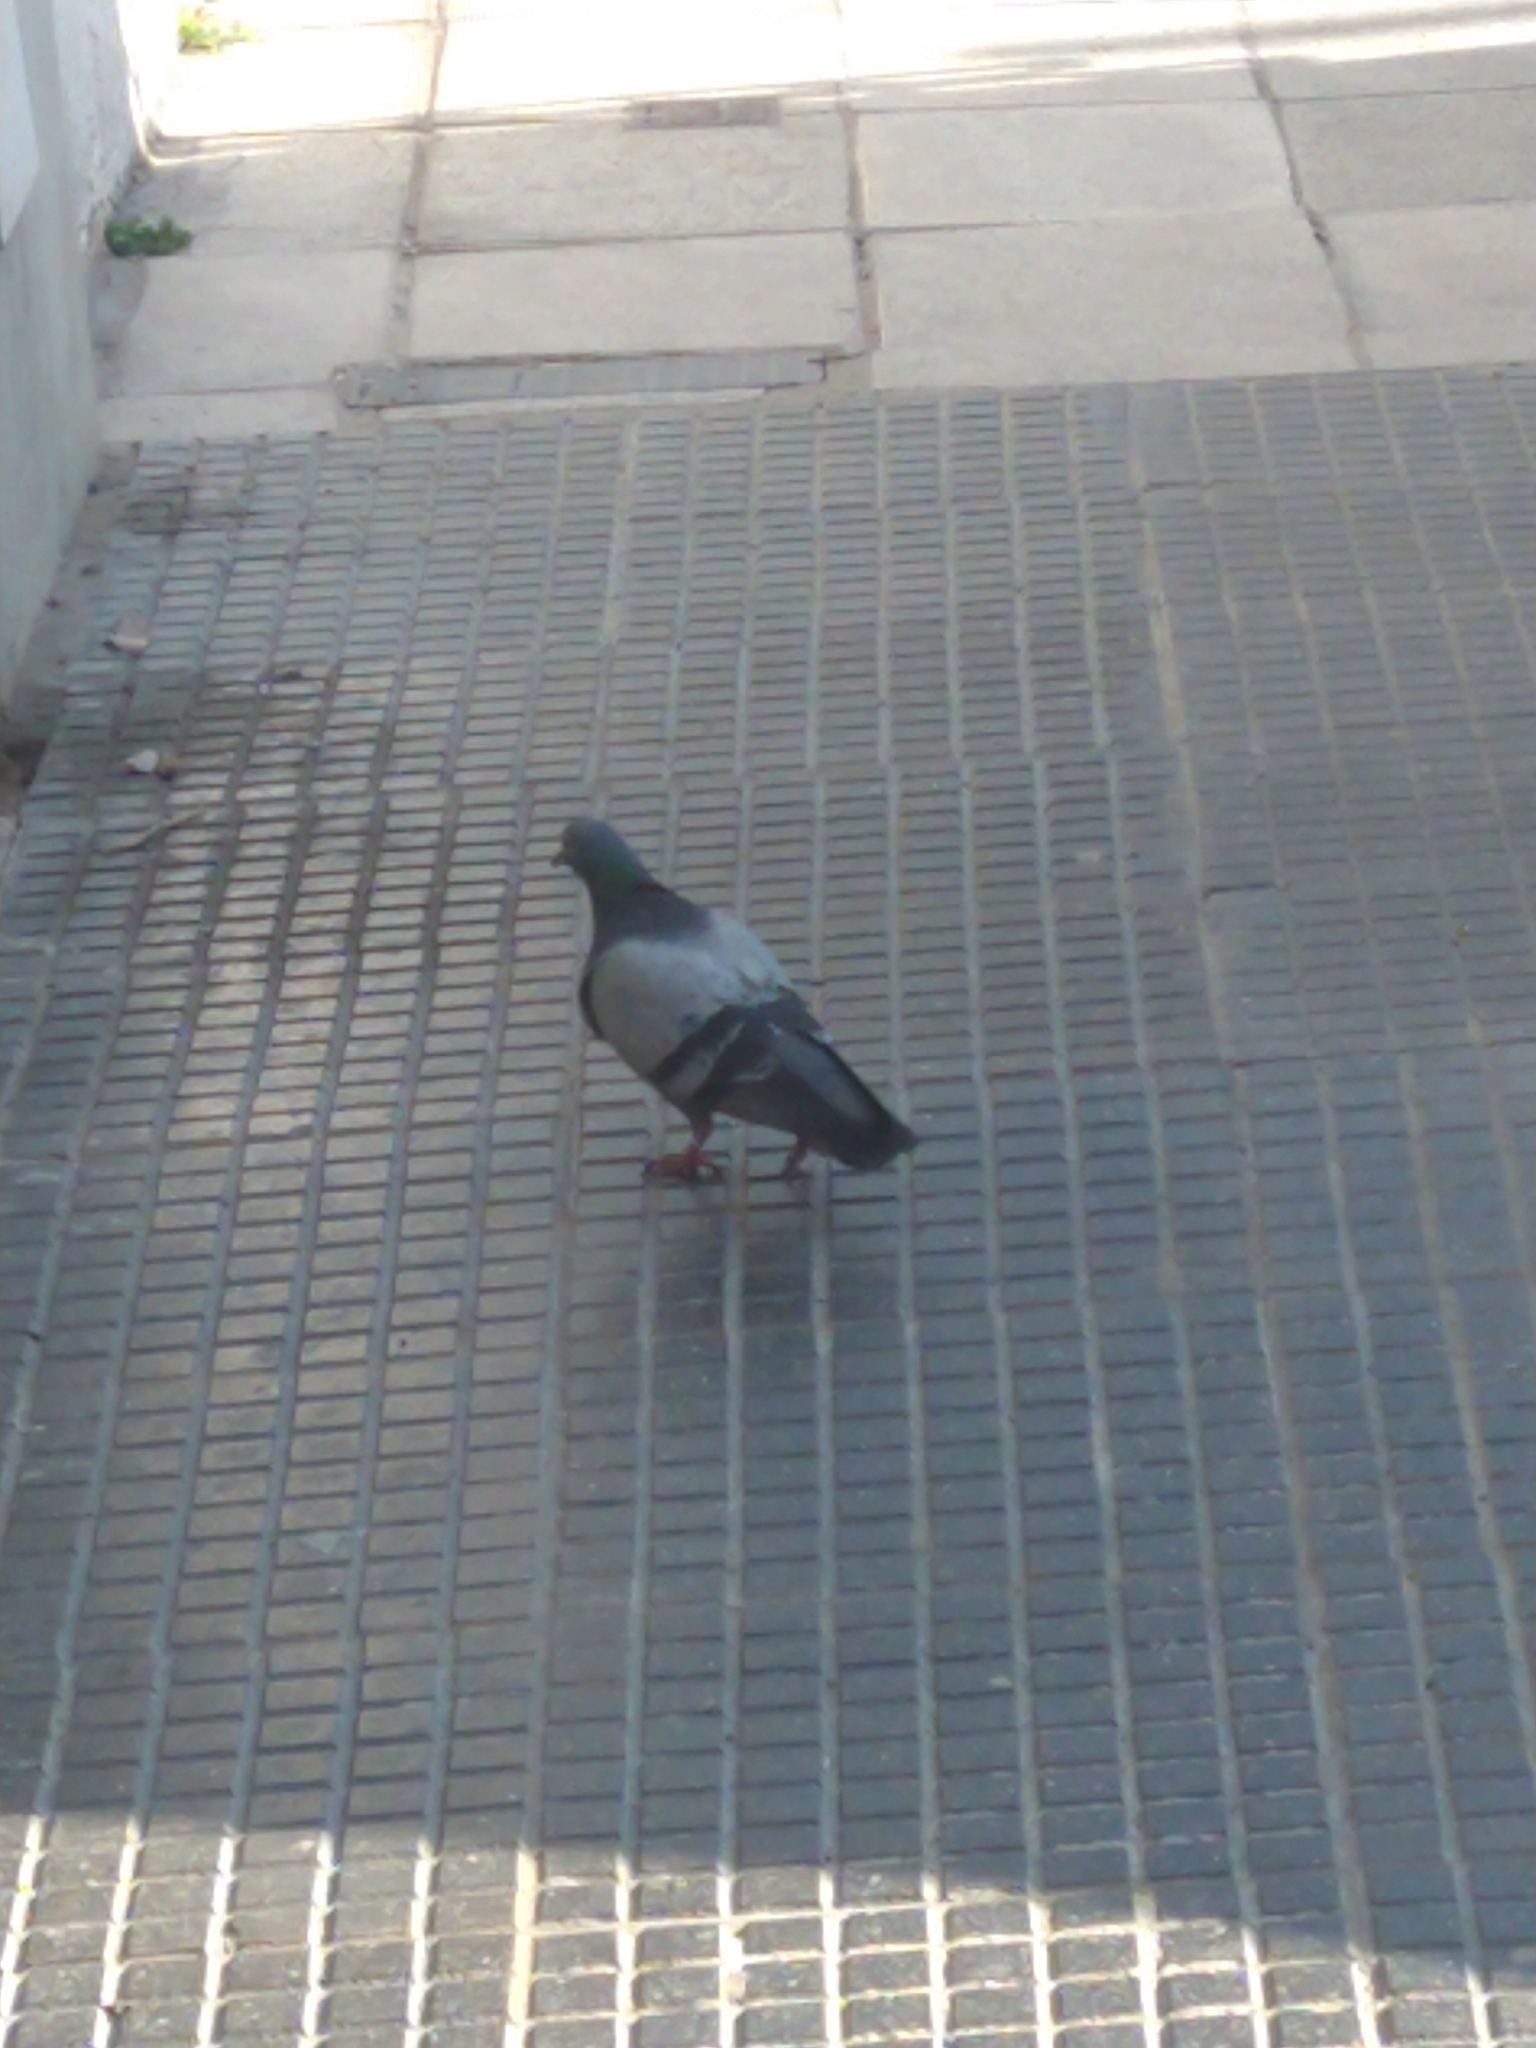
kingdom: Animalia
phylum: Chordata
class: Aves
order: Columbiformes
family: Columbidae
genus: Columba
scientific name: Columba livia
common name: Rock pigeon
